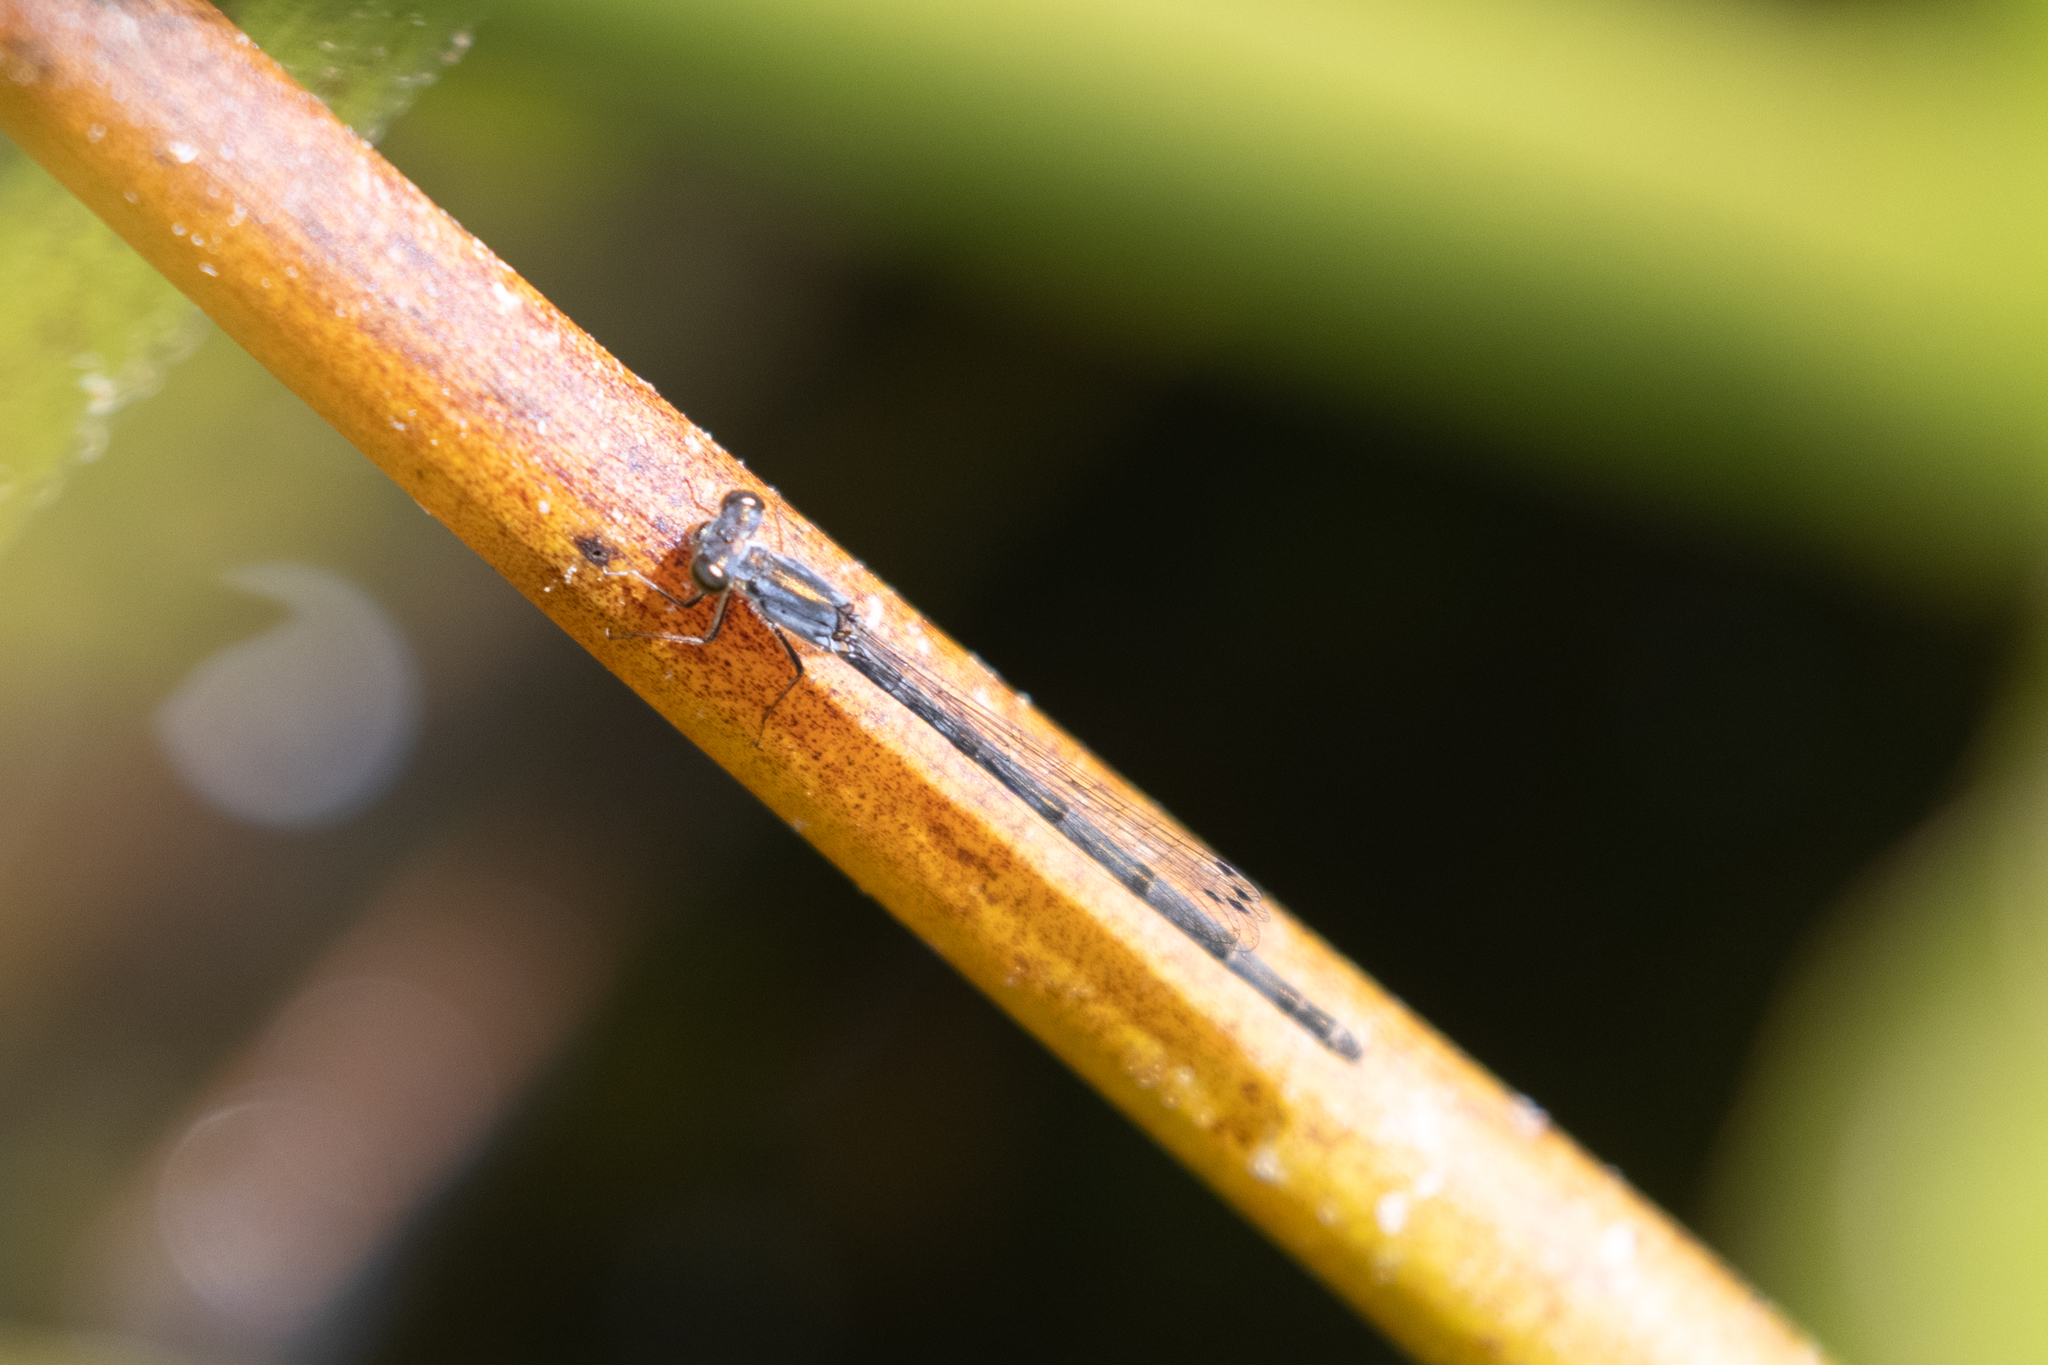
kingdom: Animalia
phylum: Arthropoda
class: Insecta
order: Odonata
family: Coenagrionidae
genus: Ischnura
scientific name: Ischnura posita
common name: Fragile forktail
